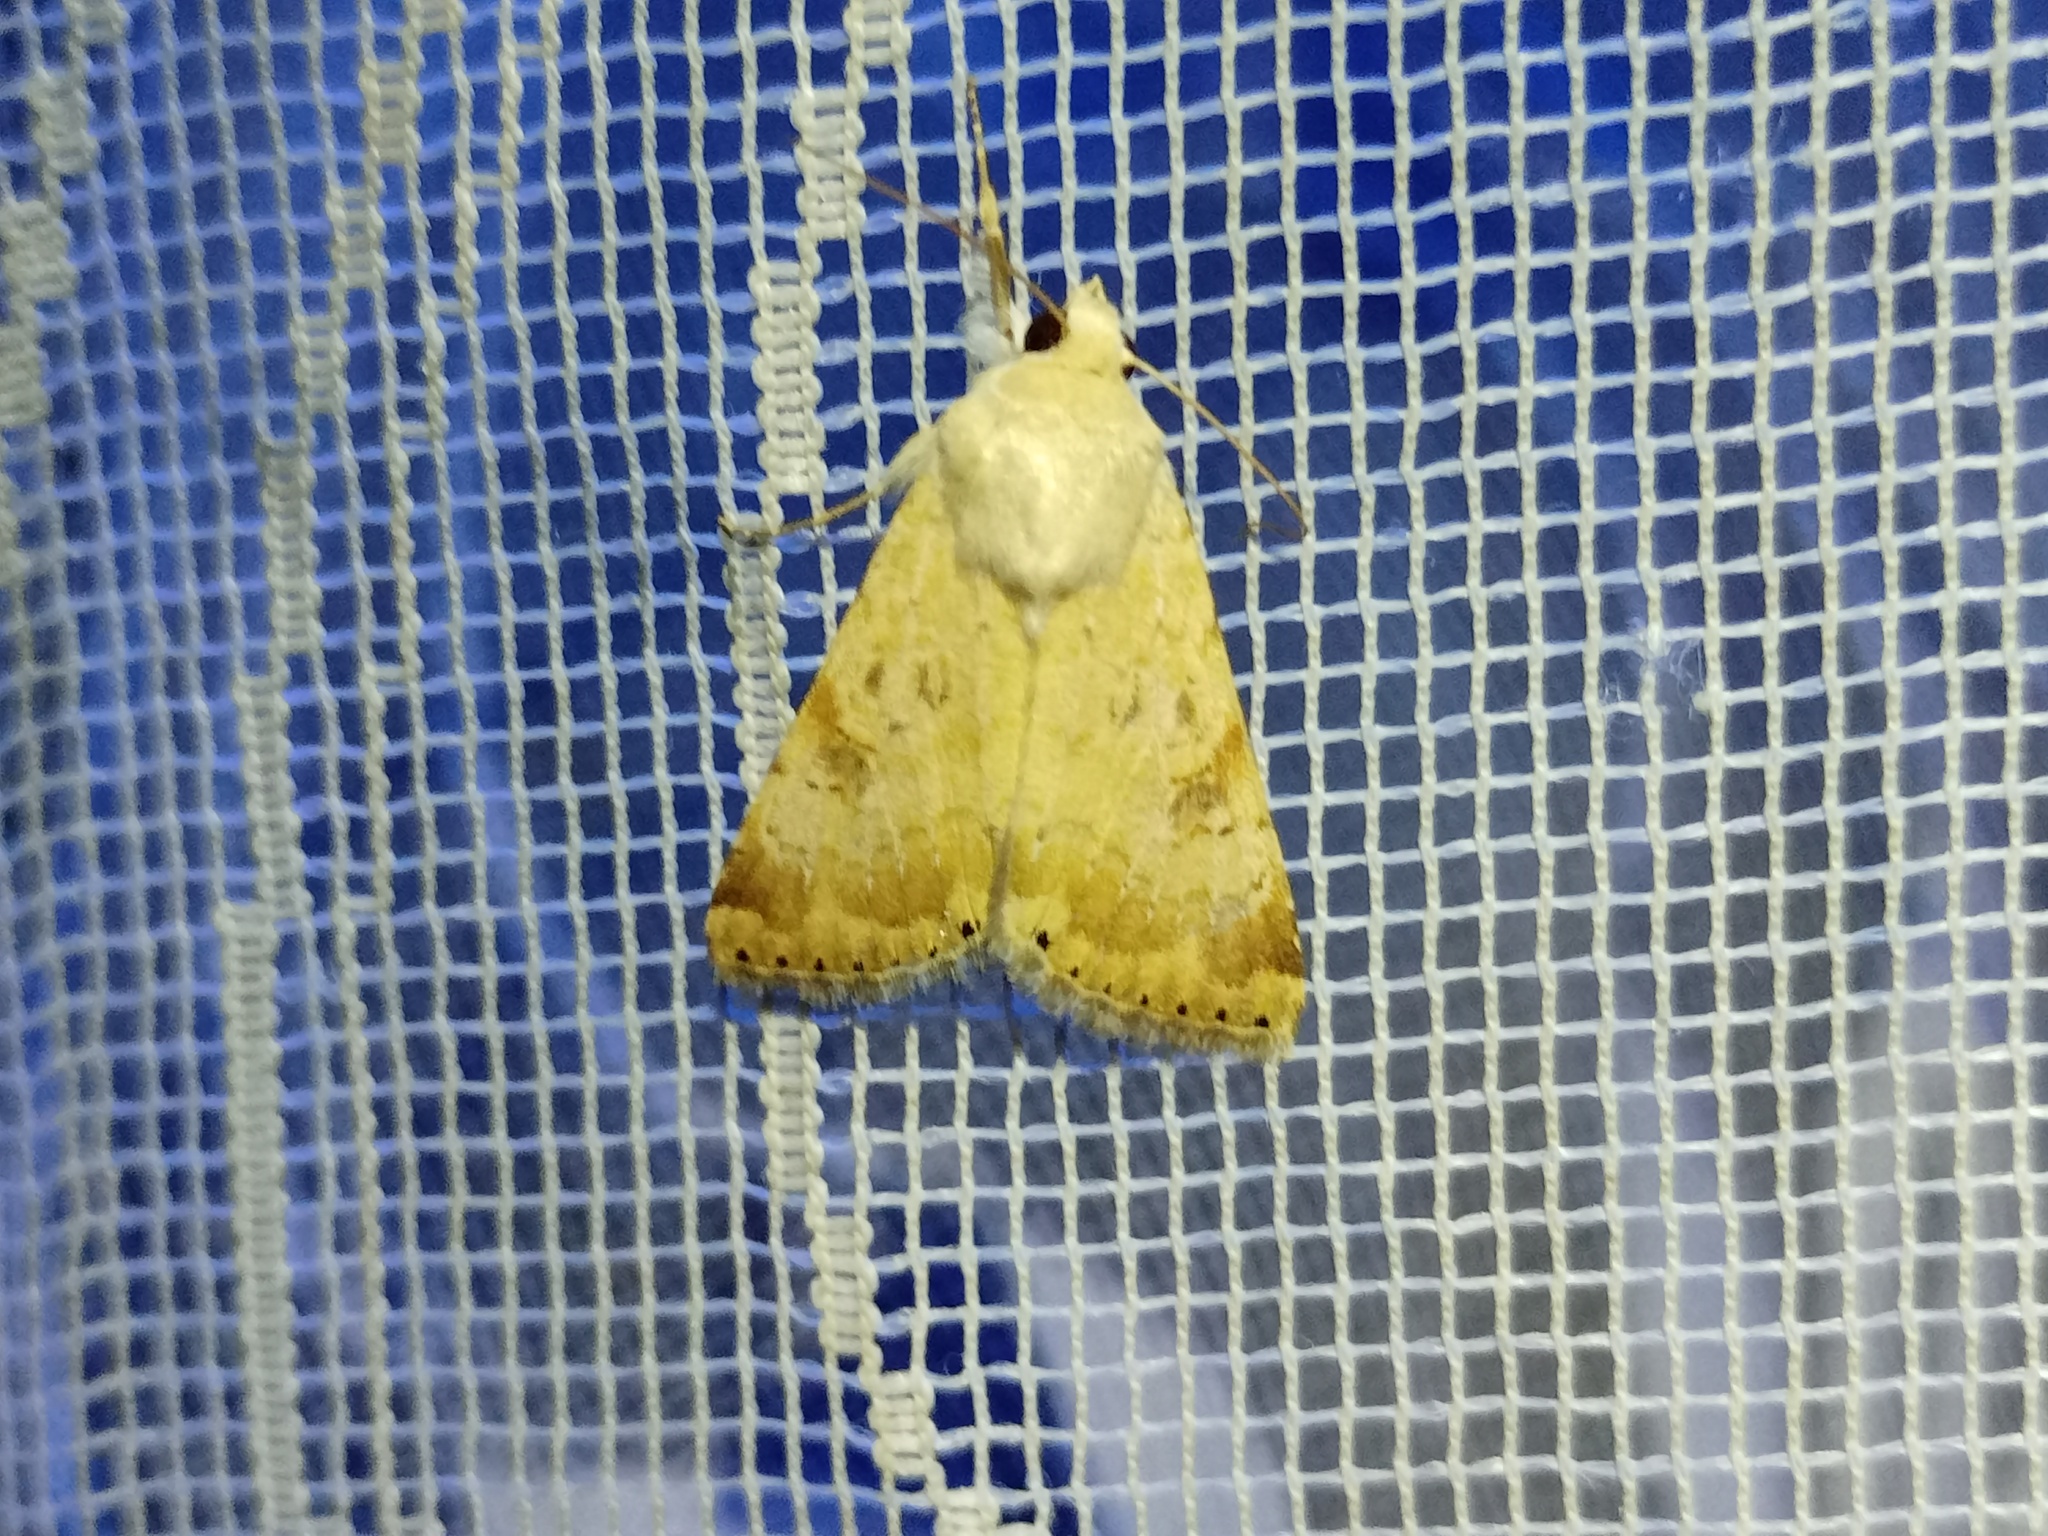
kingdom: Animalia
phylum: Arthropoda
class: Insecta
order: Lepidoptera
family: Noctuidae
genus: Heliothis
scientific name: Heliothis nubigera
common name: Eastern bordered straw
